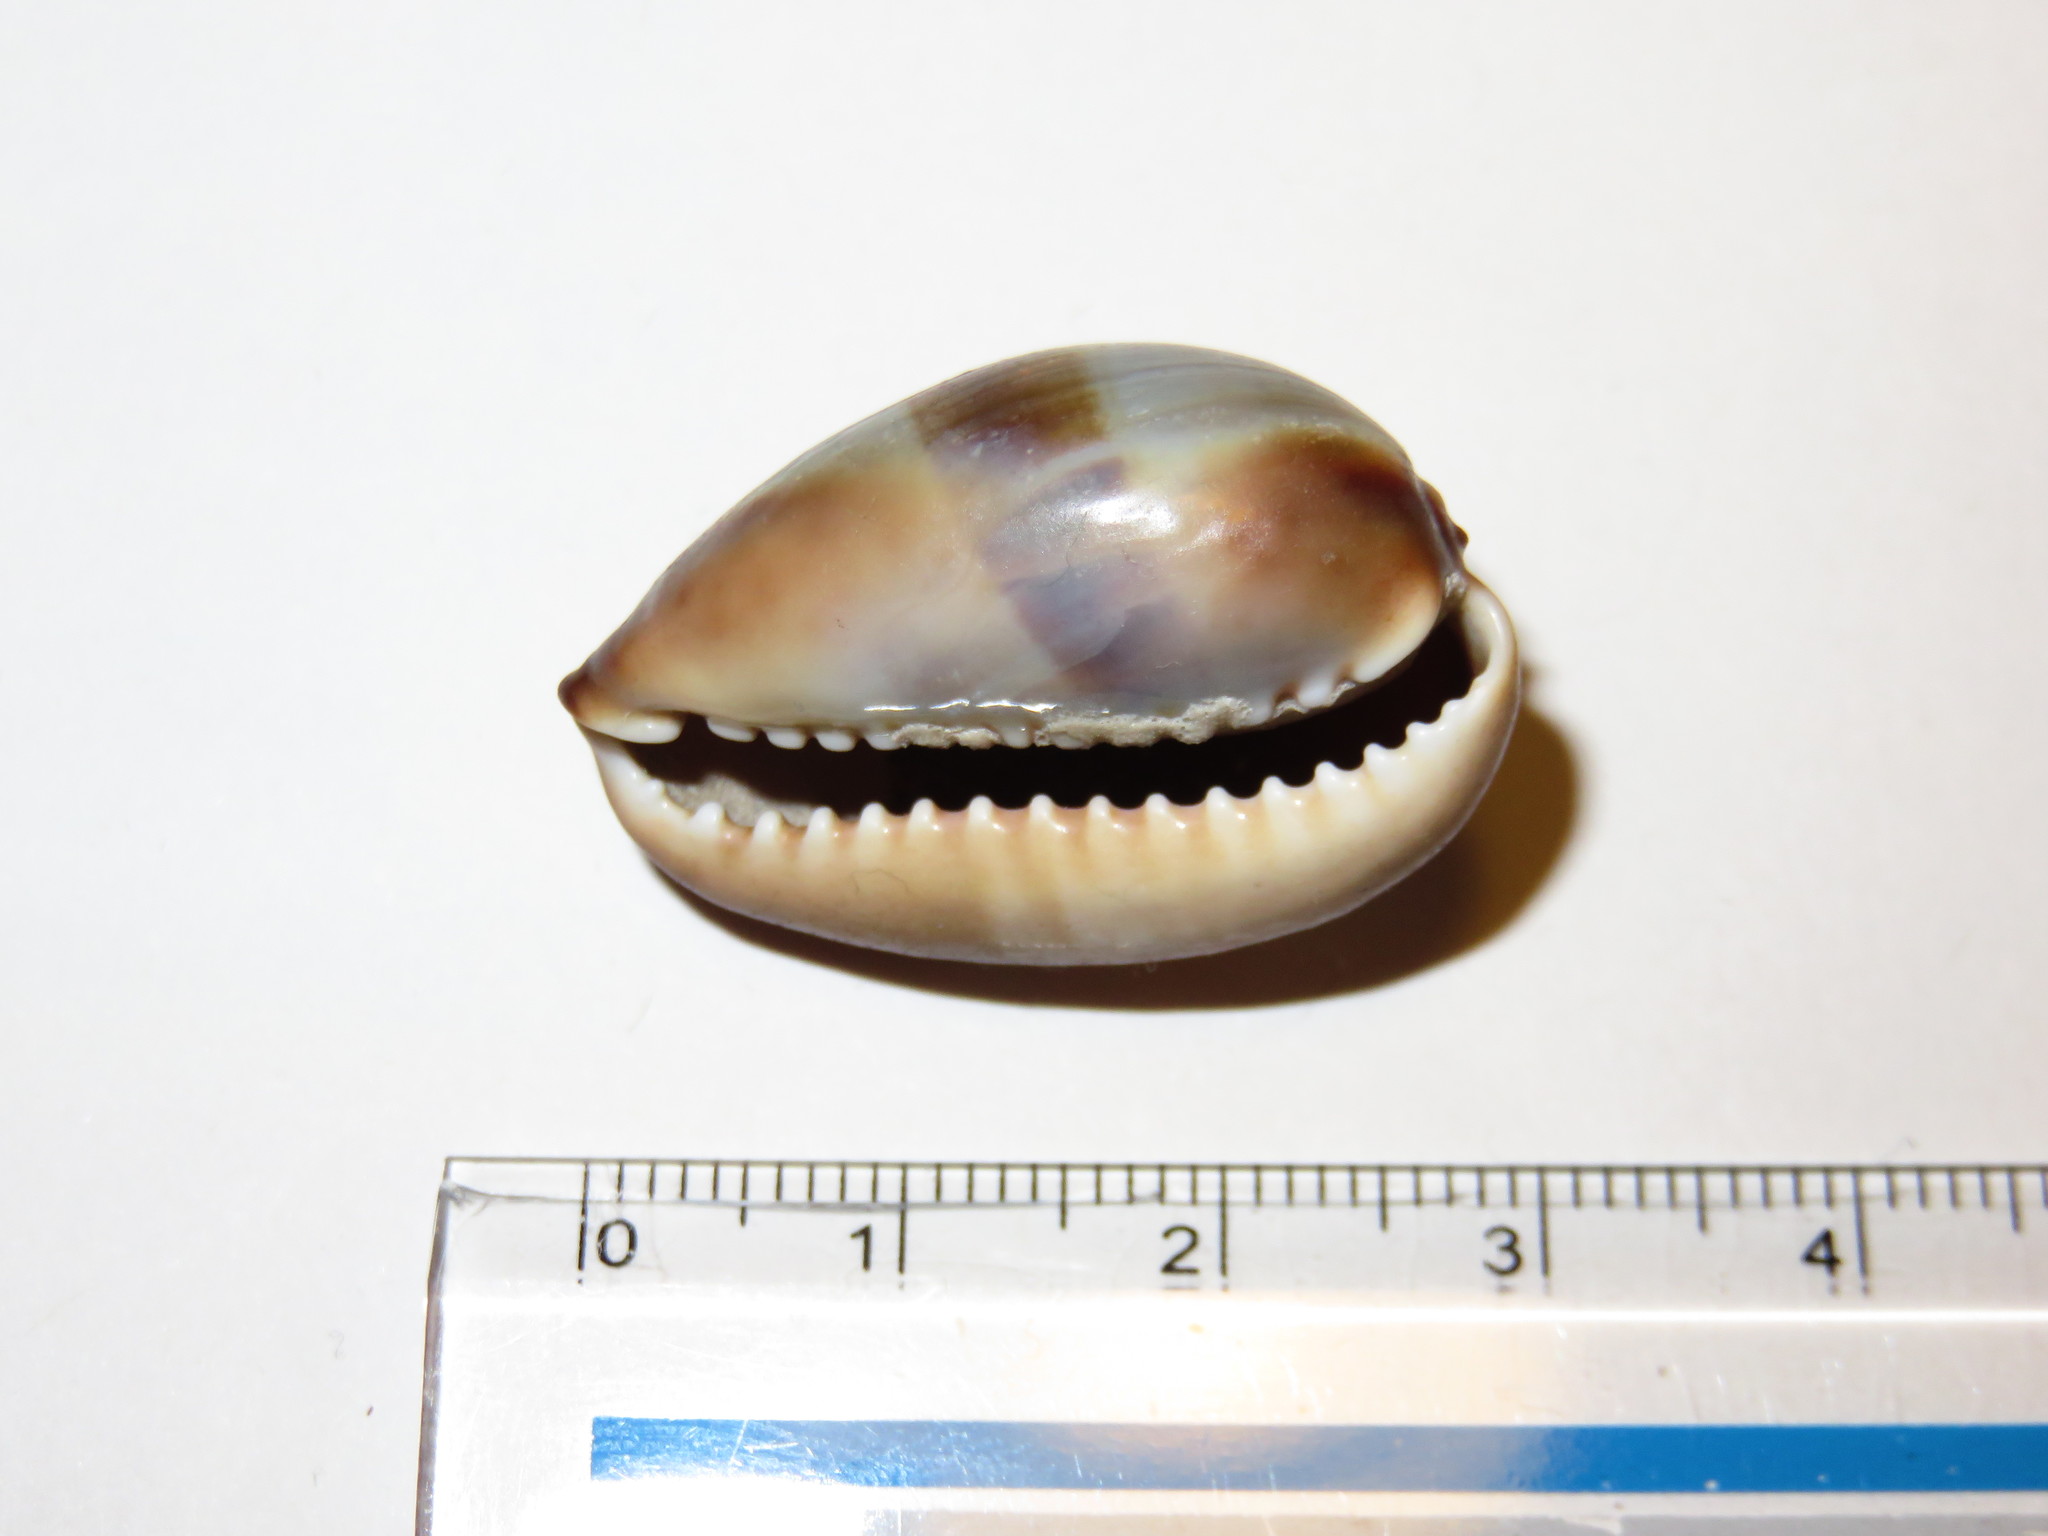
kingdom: Animalia
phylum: Mollusca
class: Gastropoda
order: Littorinimorpha
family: Cypraeidae
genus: Monetaria
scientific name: Monetaria caputserpentis
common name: Serpent's head cowrie
